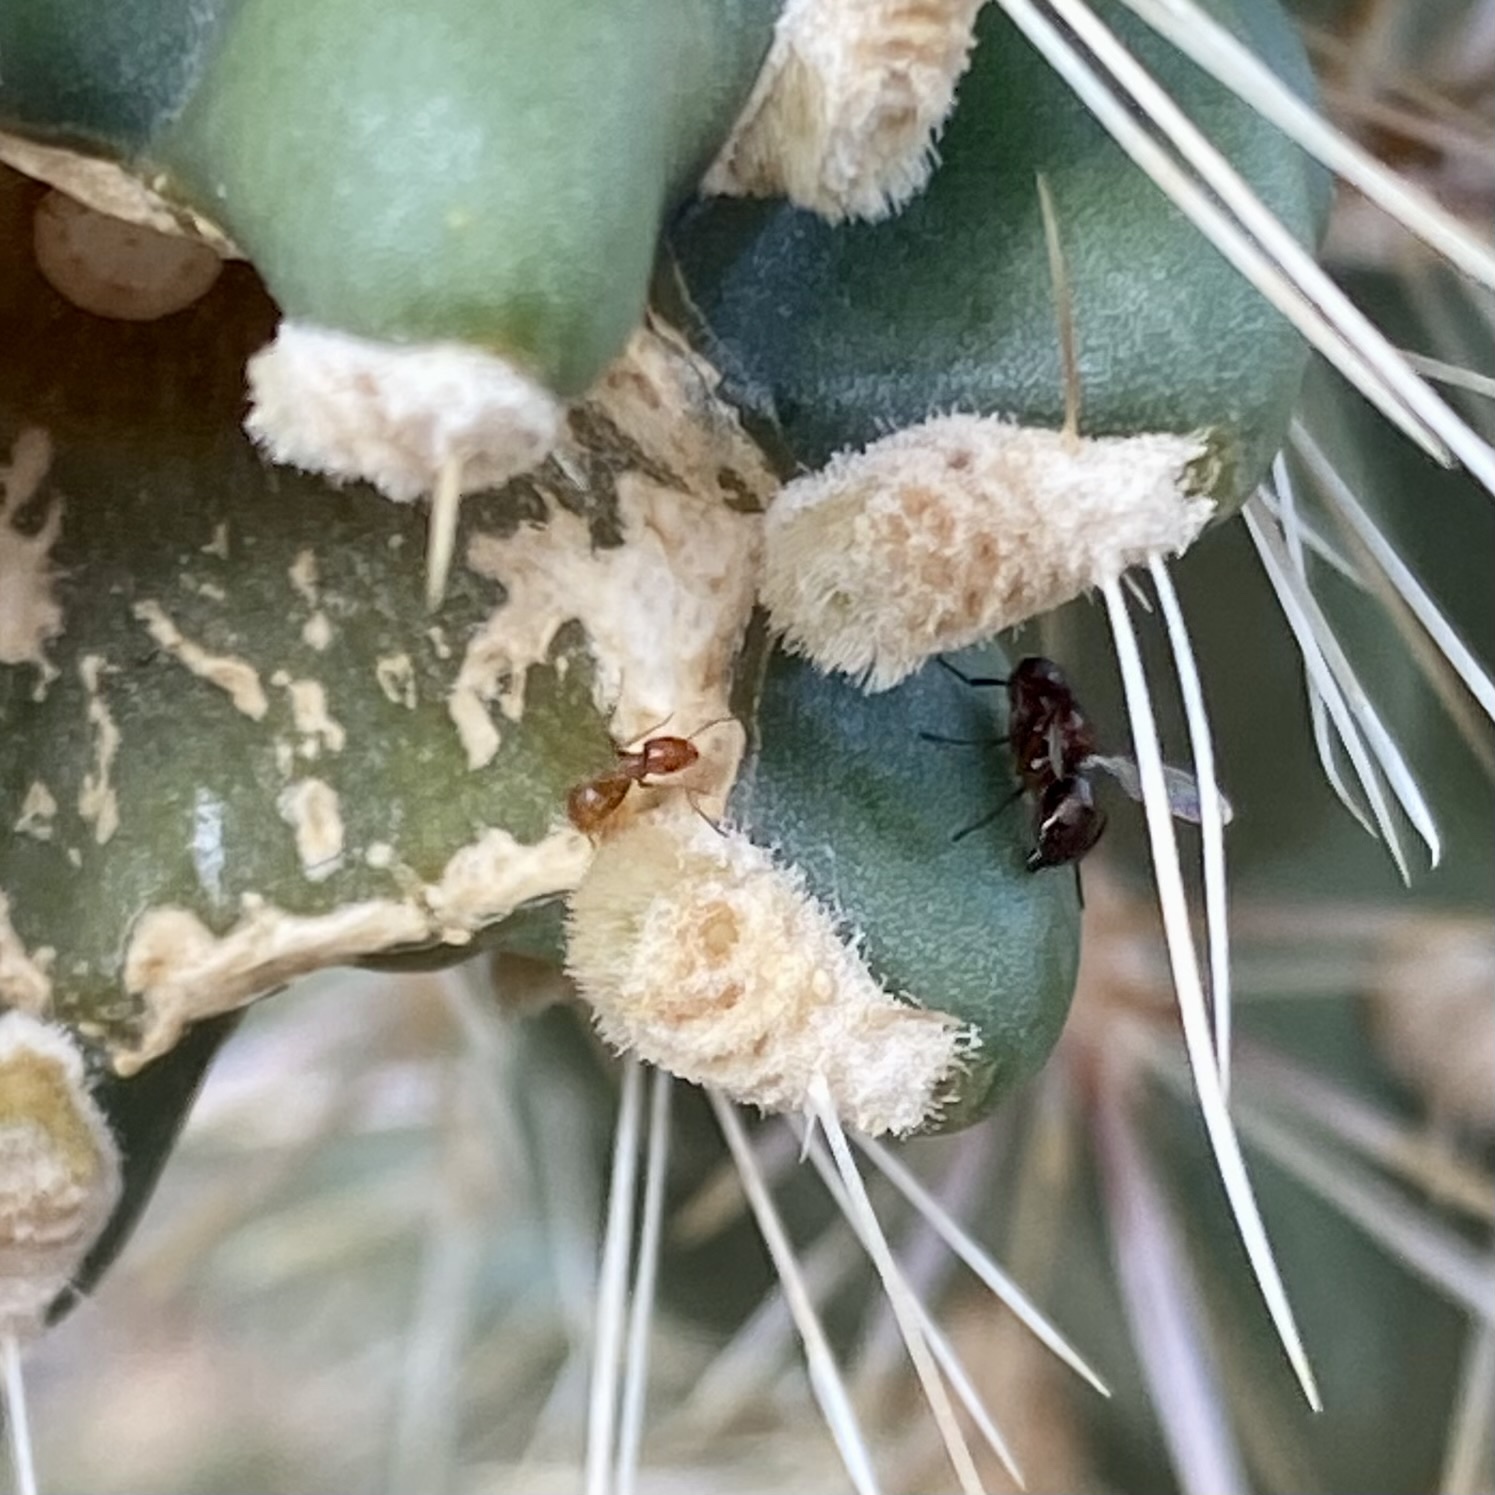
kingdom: Animalia
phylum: Arthropoda
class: Insecta
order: Hymenoptera
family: Formicidae
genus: Forelius
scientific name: Forelius
